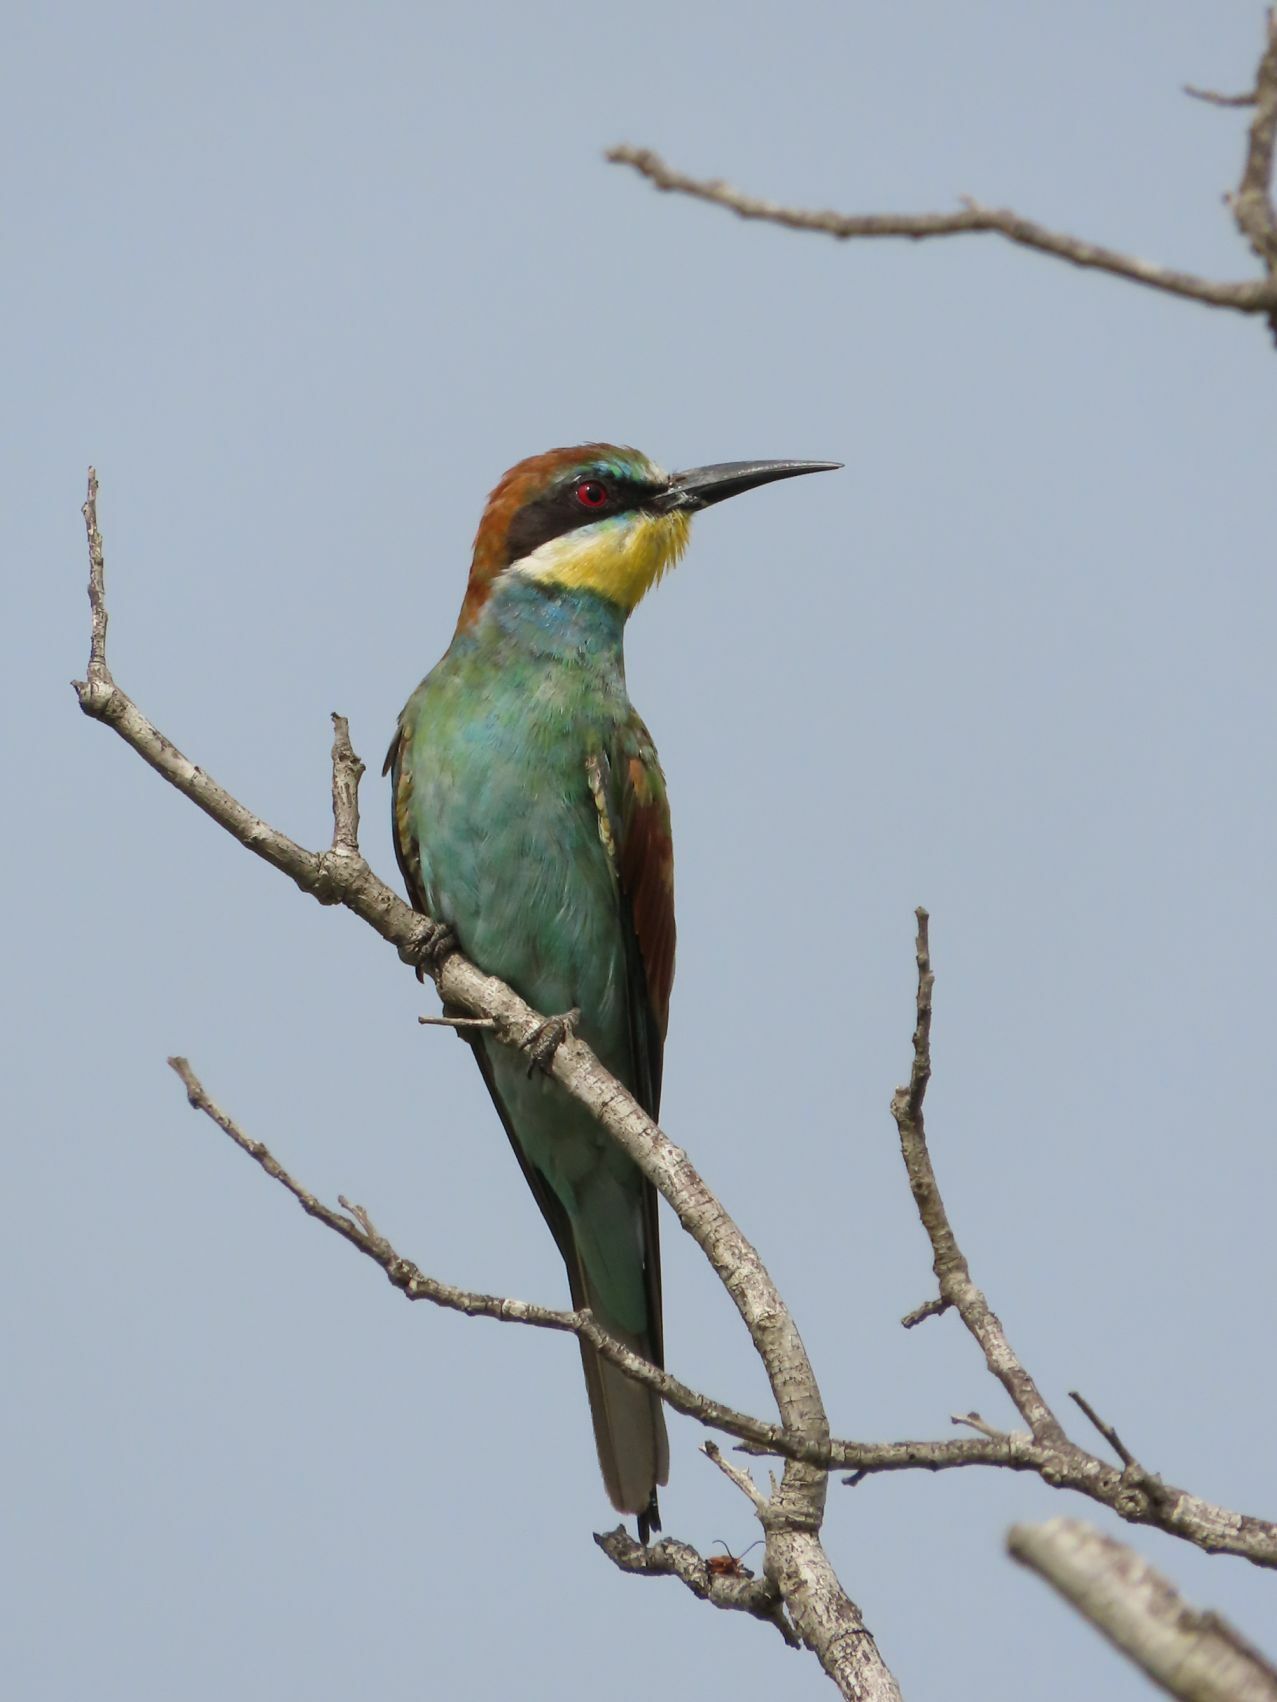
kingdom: Animalia
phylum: Chordata
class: Aves
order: Coraciiformes
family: Meropidae
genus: Merops
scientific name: Merops apiaster
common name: European bee-eater
